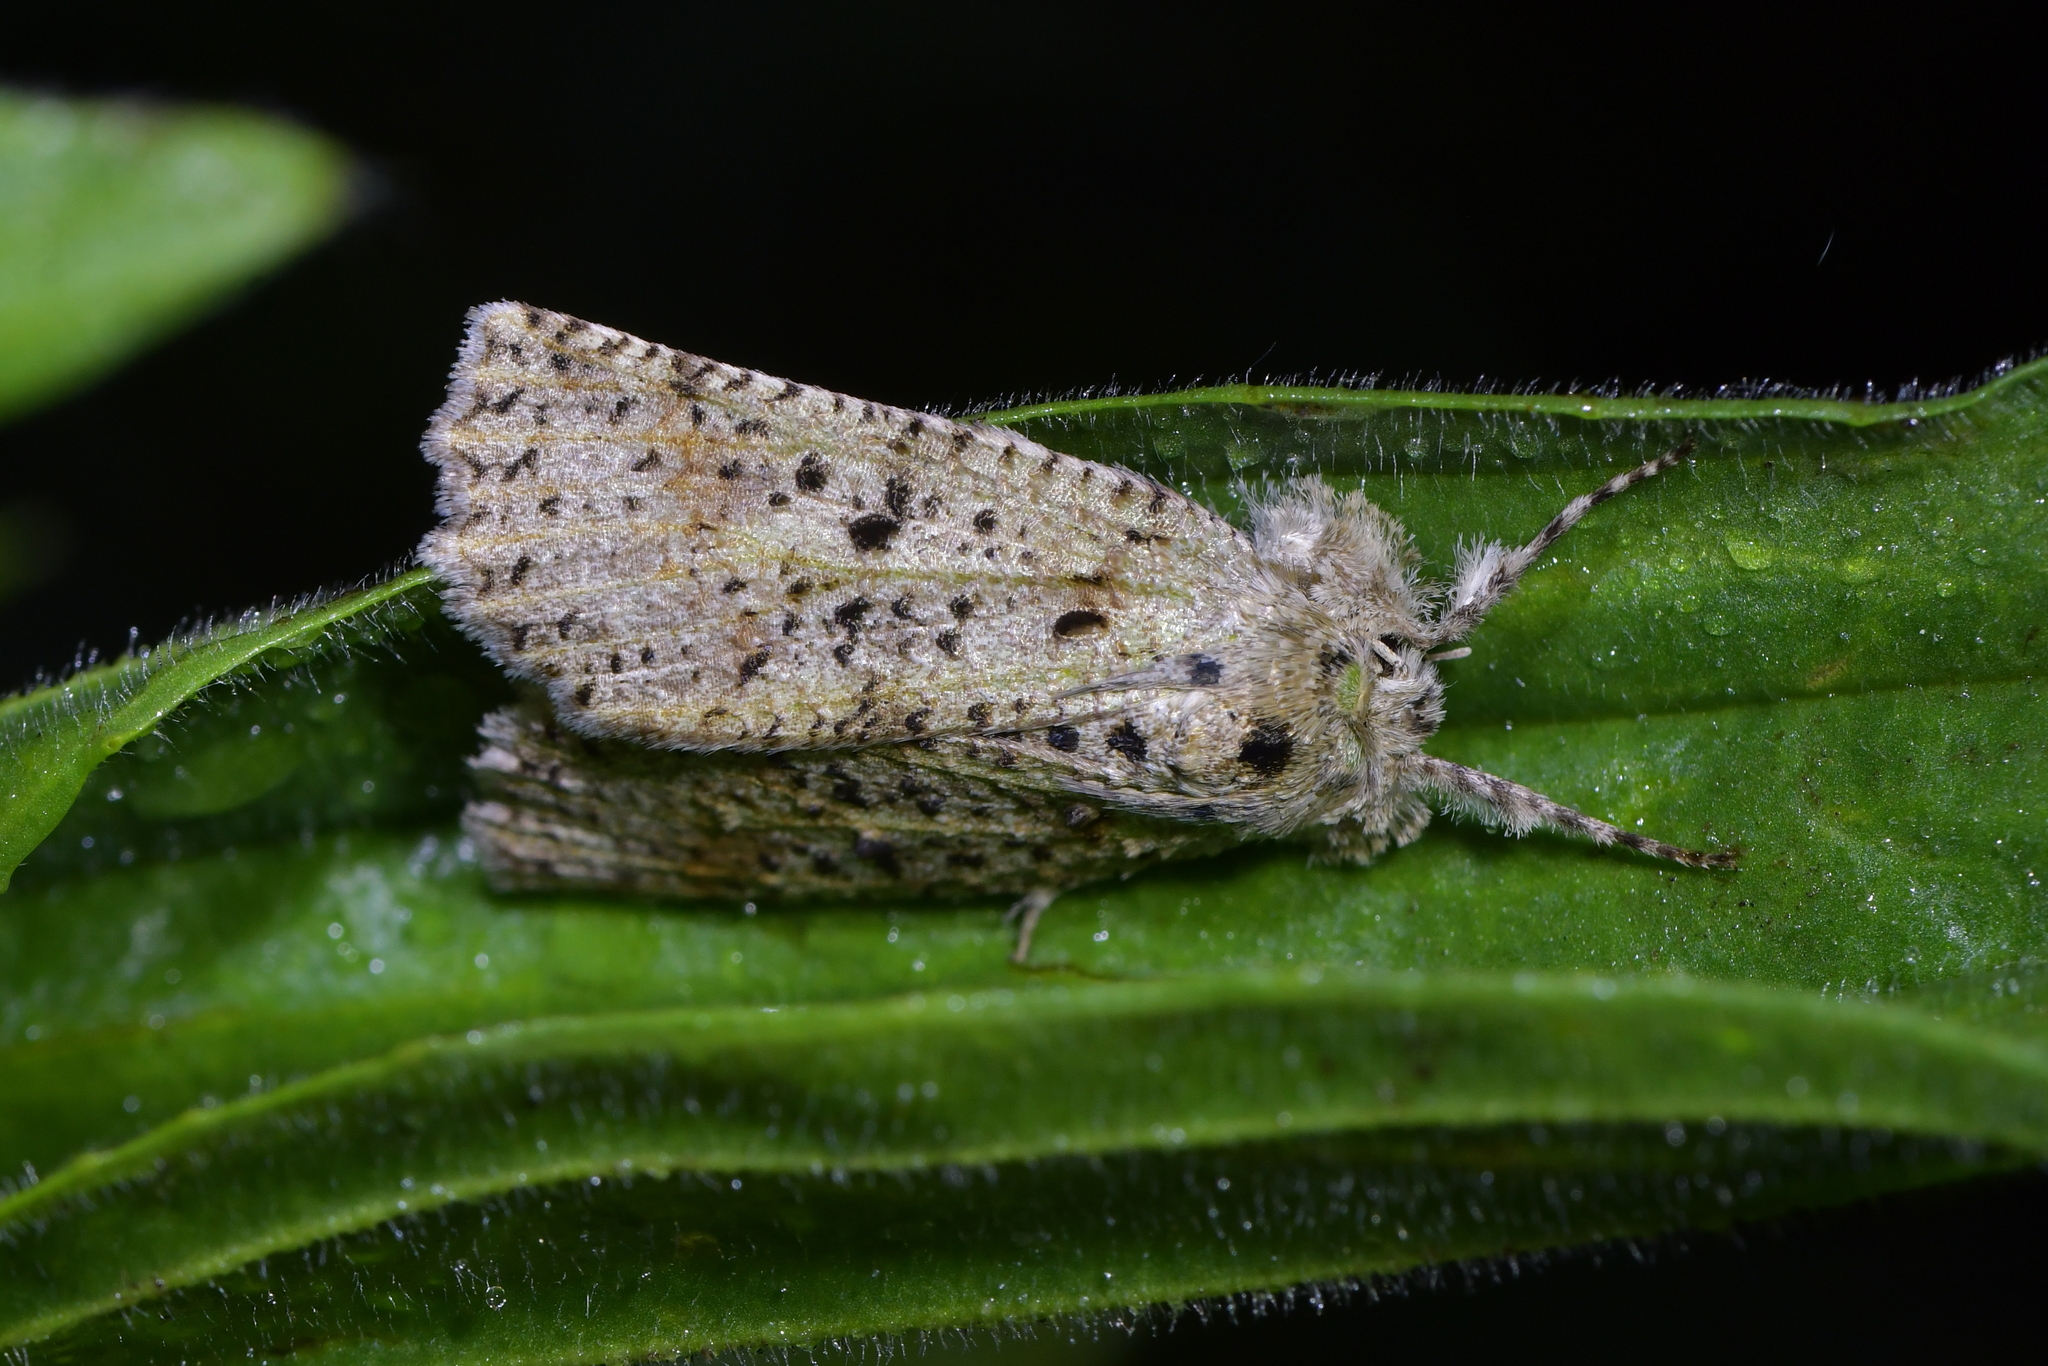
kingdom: Animalia
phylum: Arthropoda
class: Insecta
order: Lepidoptera
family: Geometridae
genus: Declana
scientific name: Declana floccosa
